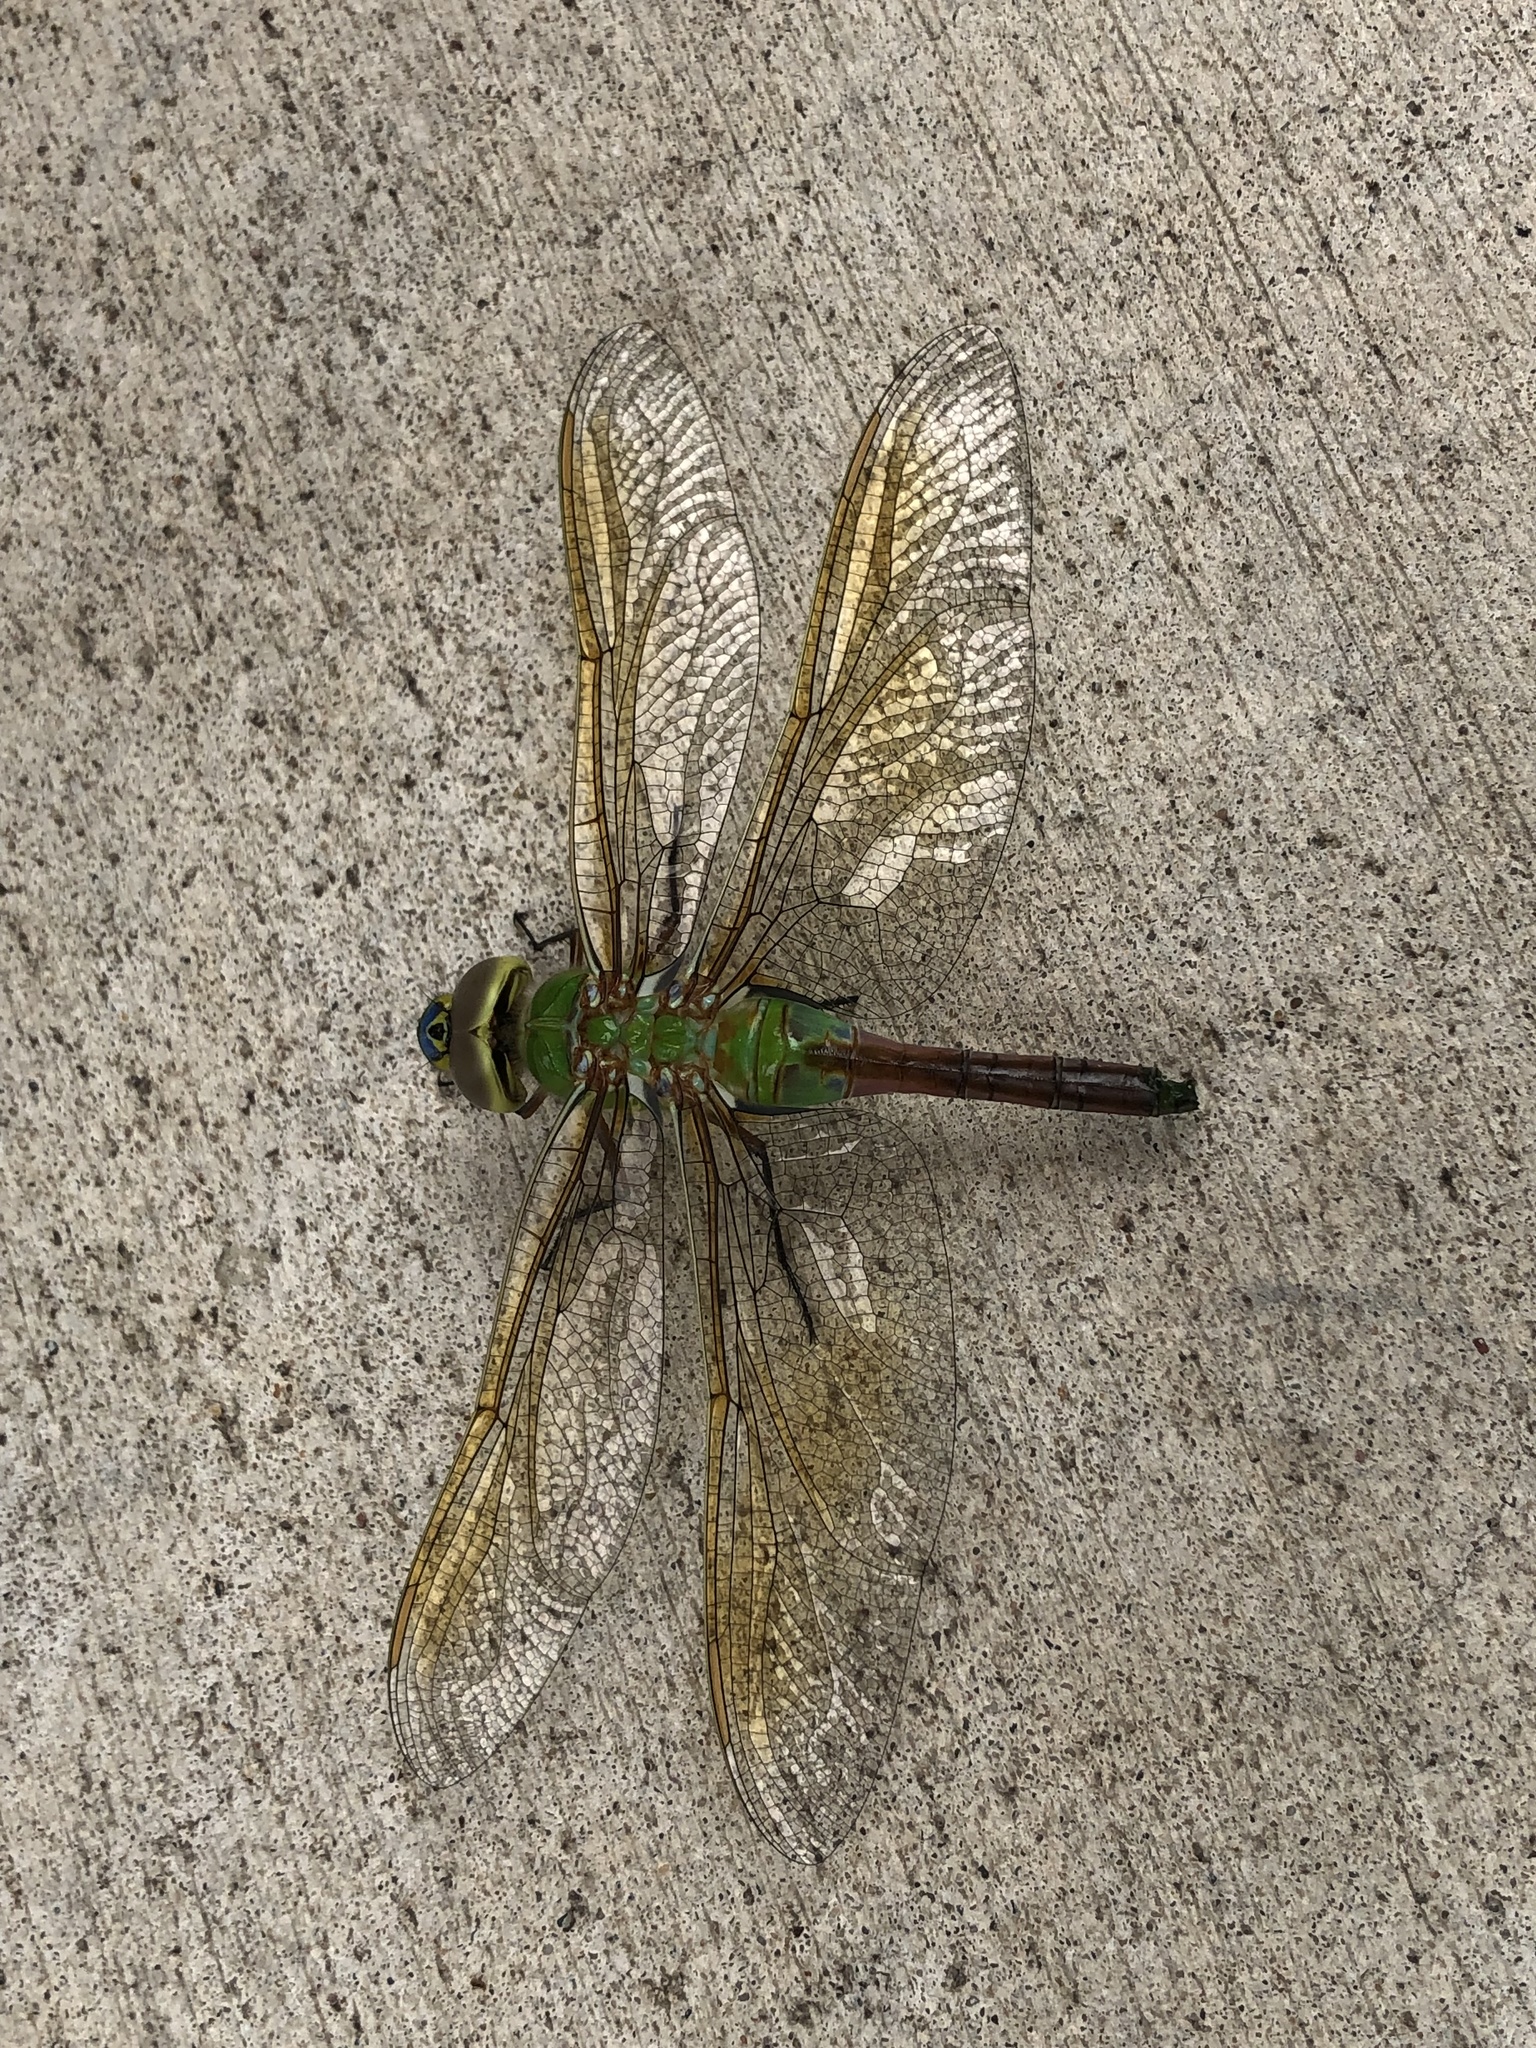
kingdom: Animalia
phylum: Arthropoda
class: Insecta
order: Odonata
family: Aeshnidae
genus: Anax
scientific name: Anax junius
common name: Common green darner
